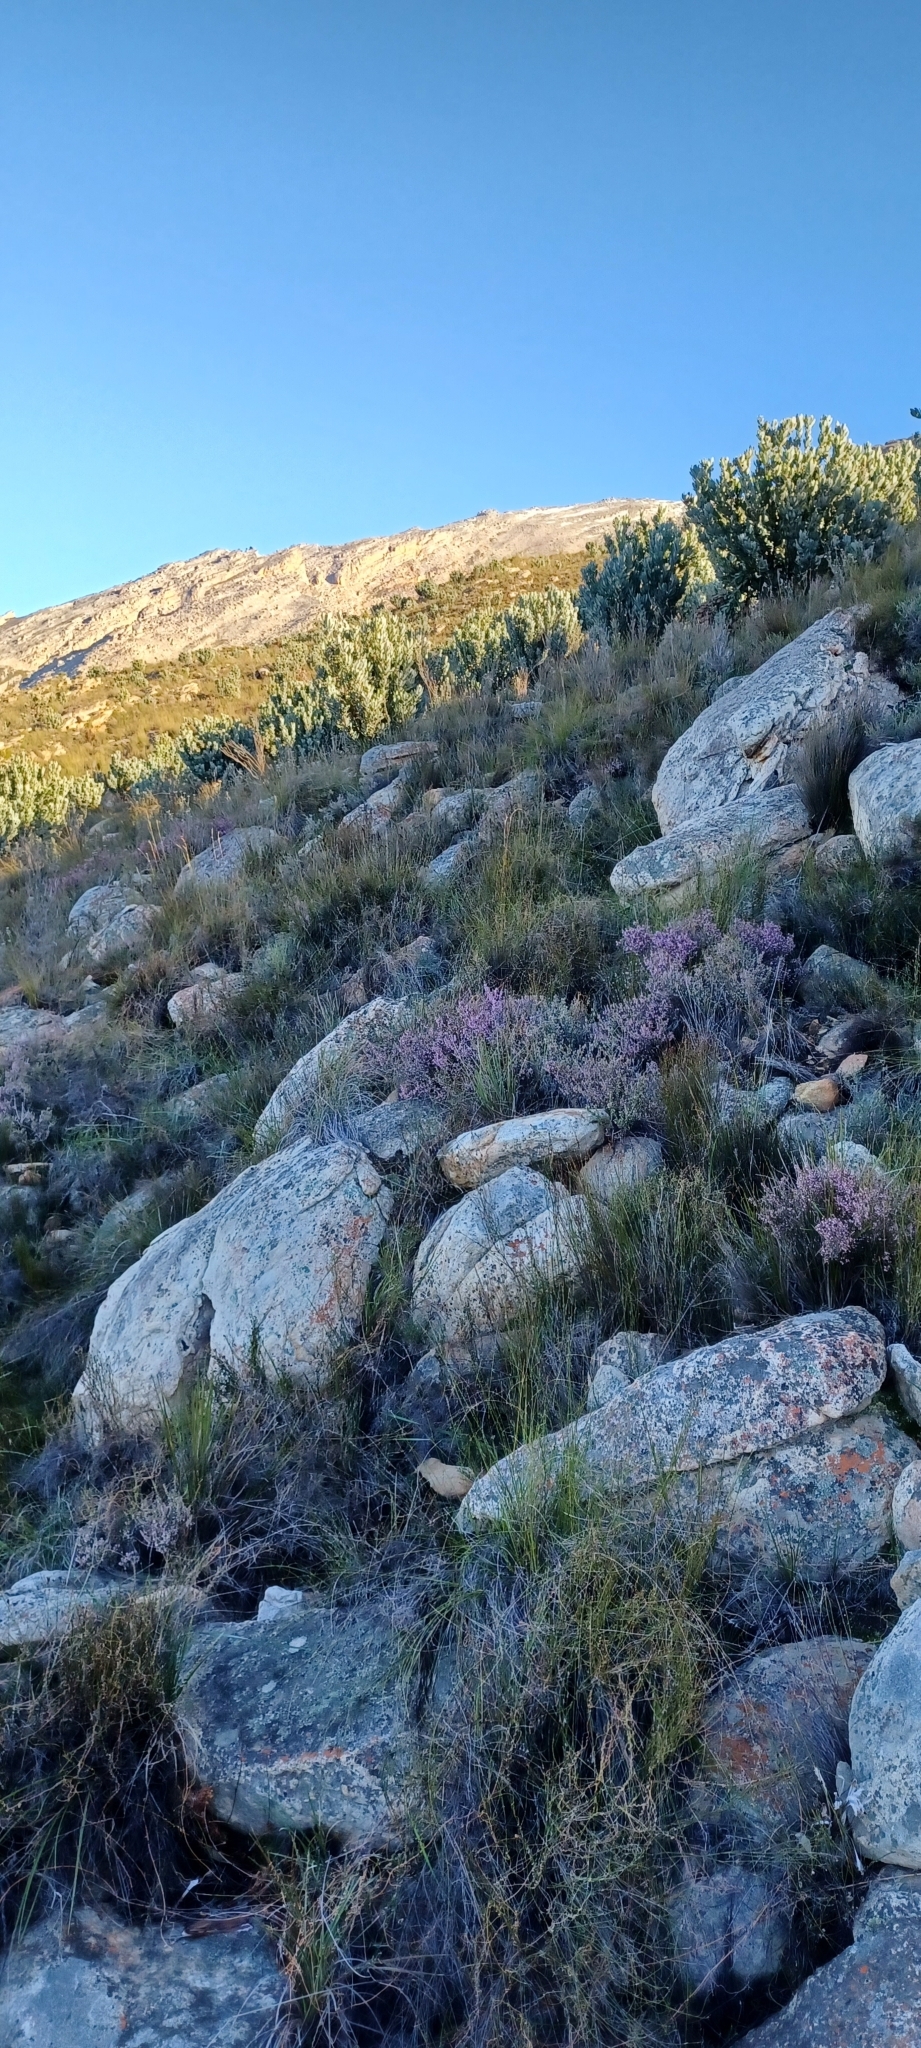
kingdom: Plantae
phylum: Tracheophyta
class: Magnoliopsida
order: Proteales
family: Proteaceae
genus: Protea
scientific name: Protea laurifolia
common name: Grey-leaf sugarbsh
